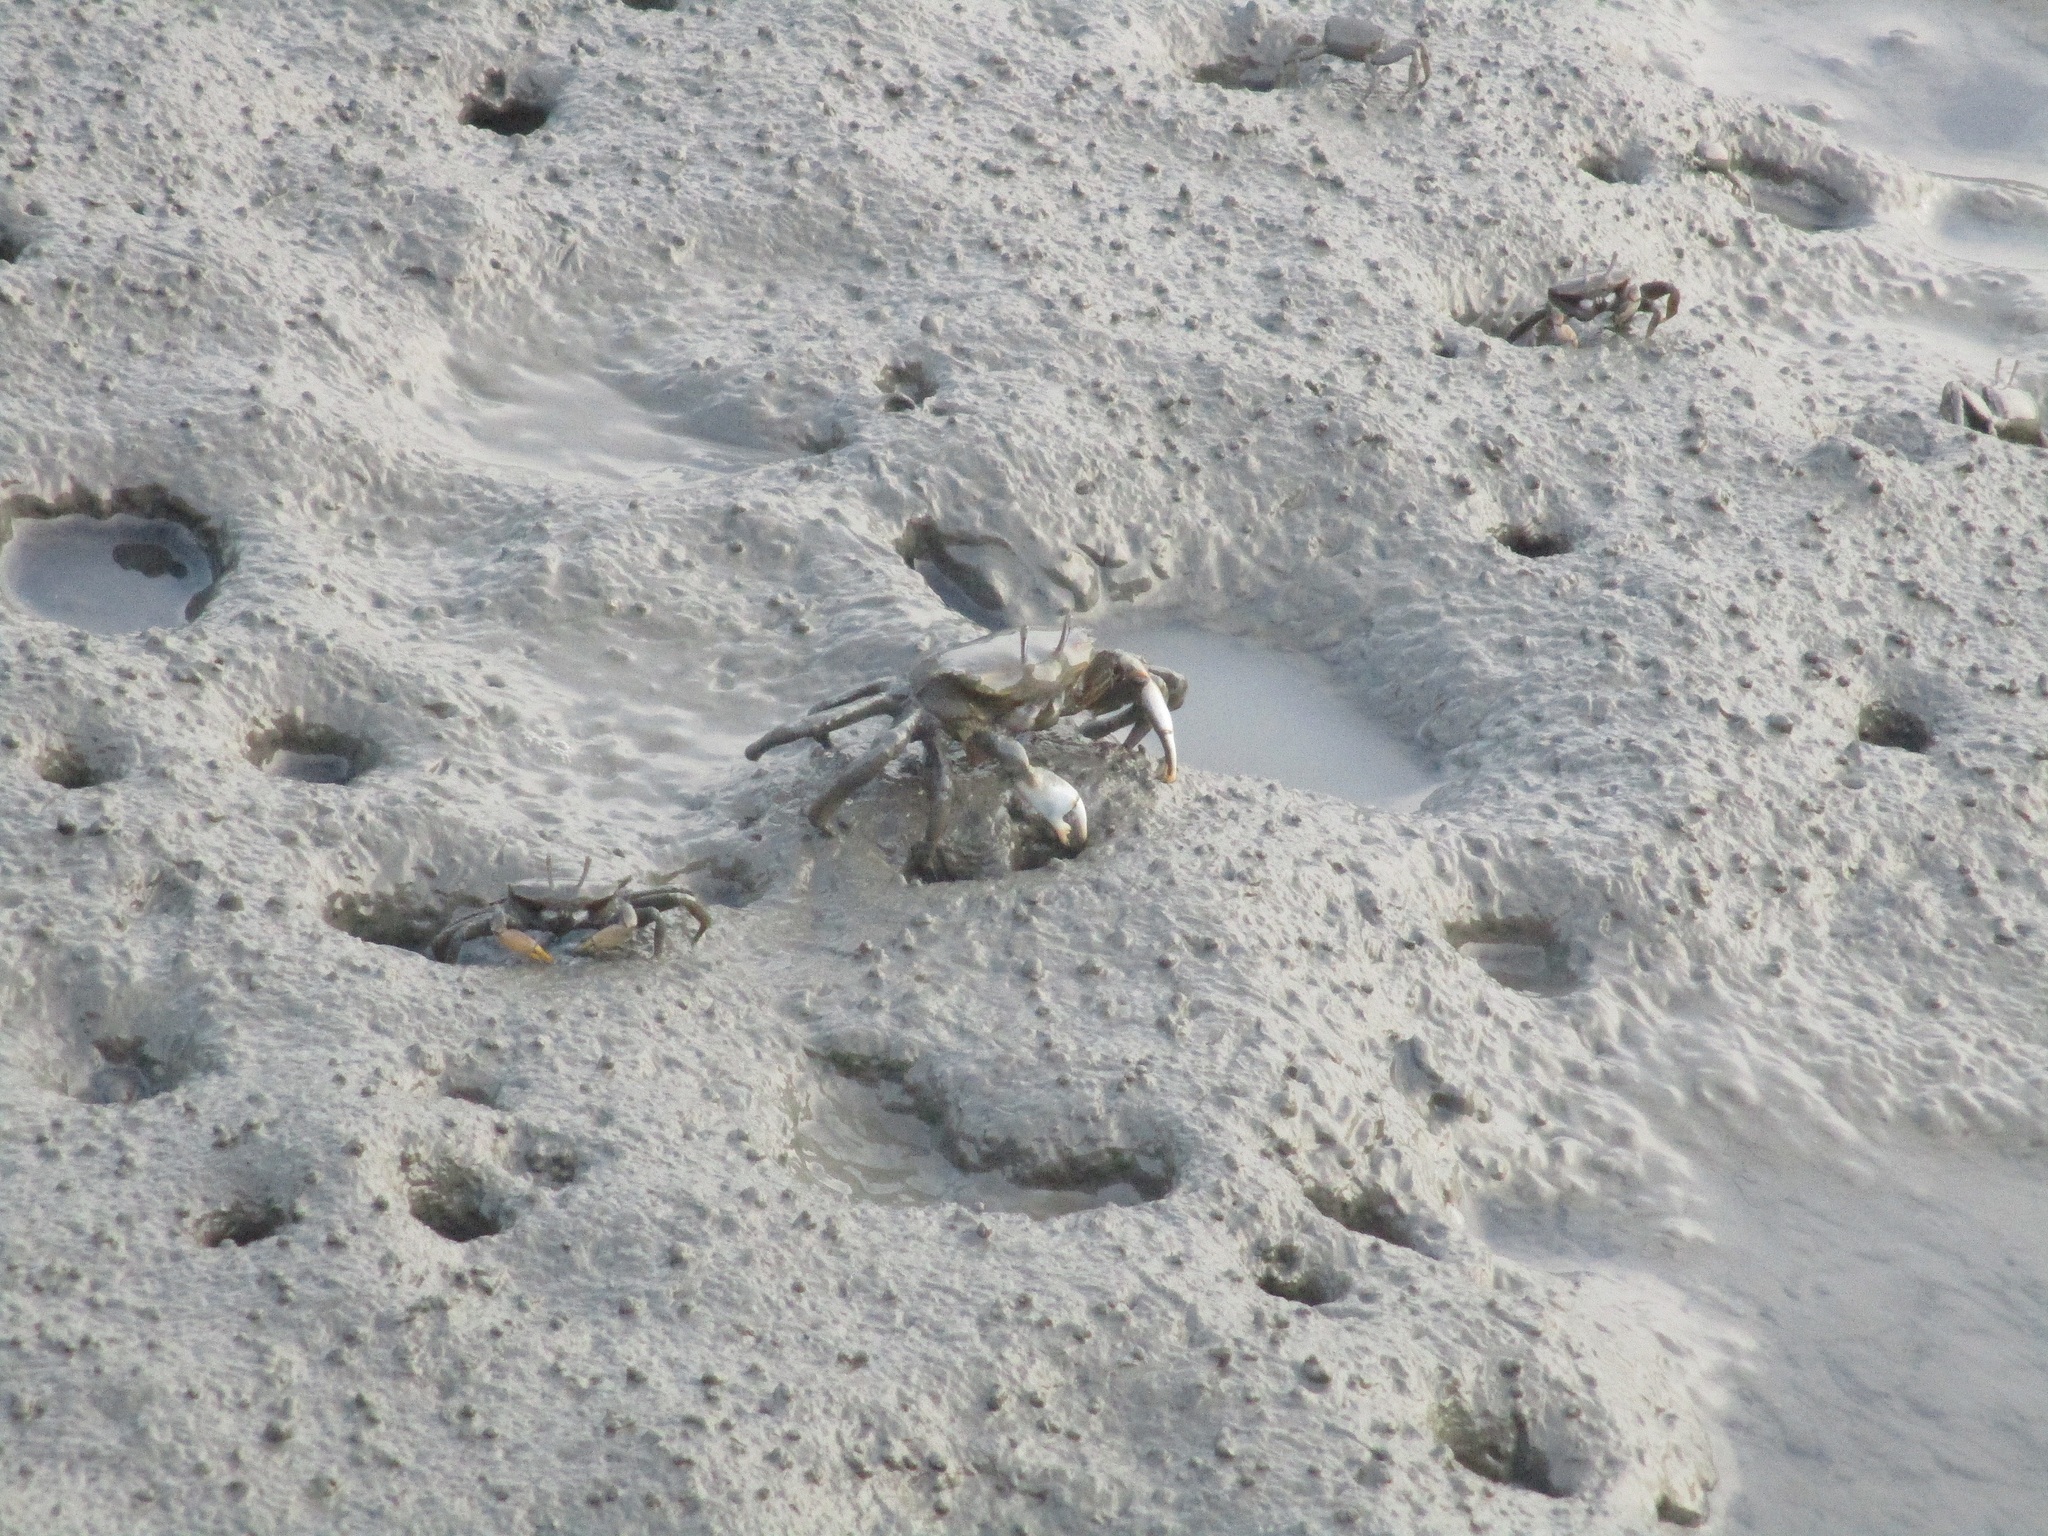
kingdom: Animalia
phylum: Arthropoda
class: Malacostraca
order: Decapoda
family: Macrophthalmidae
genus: Macrophthalmus
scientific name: Macrophthalmus banzai
